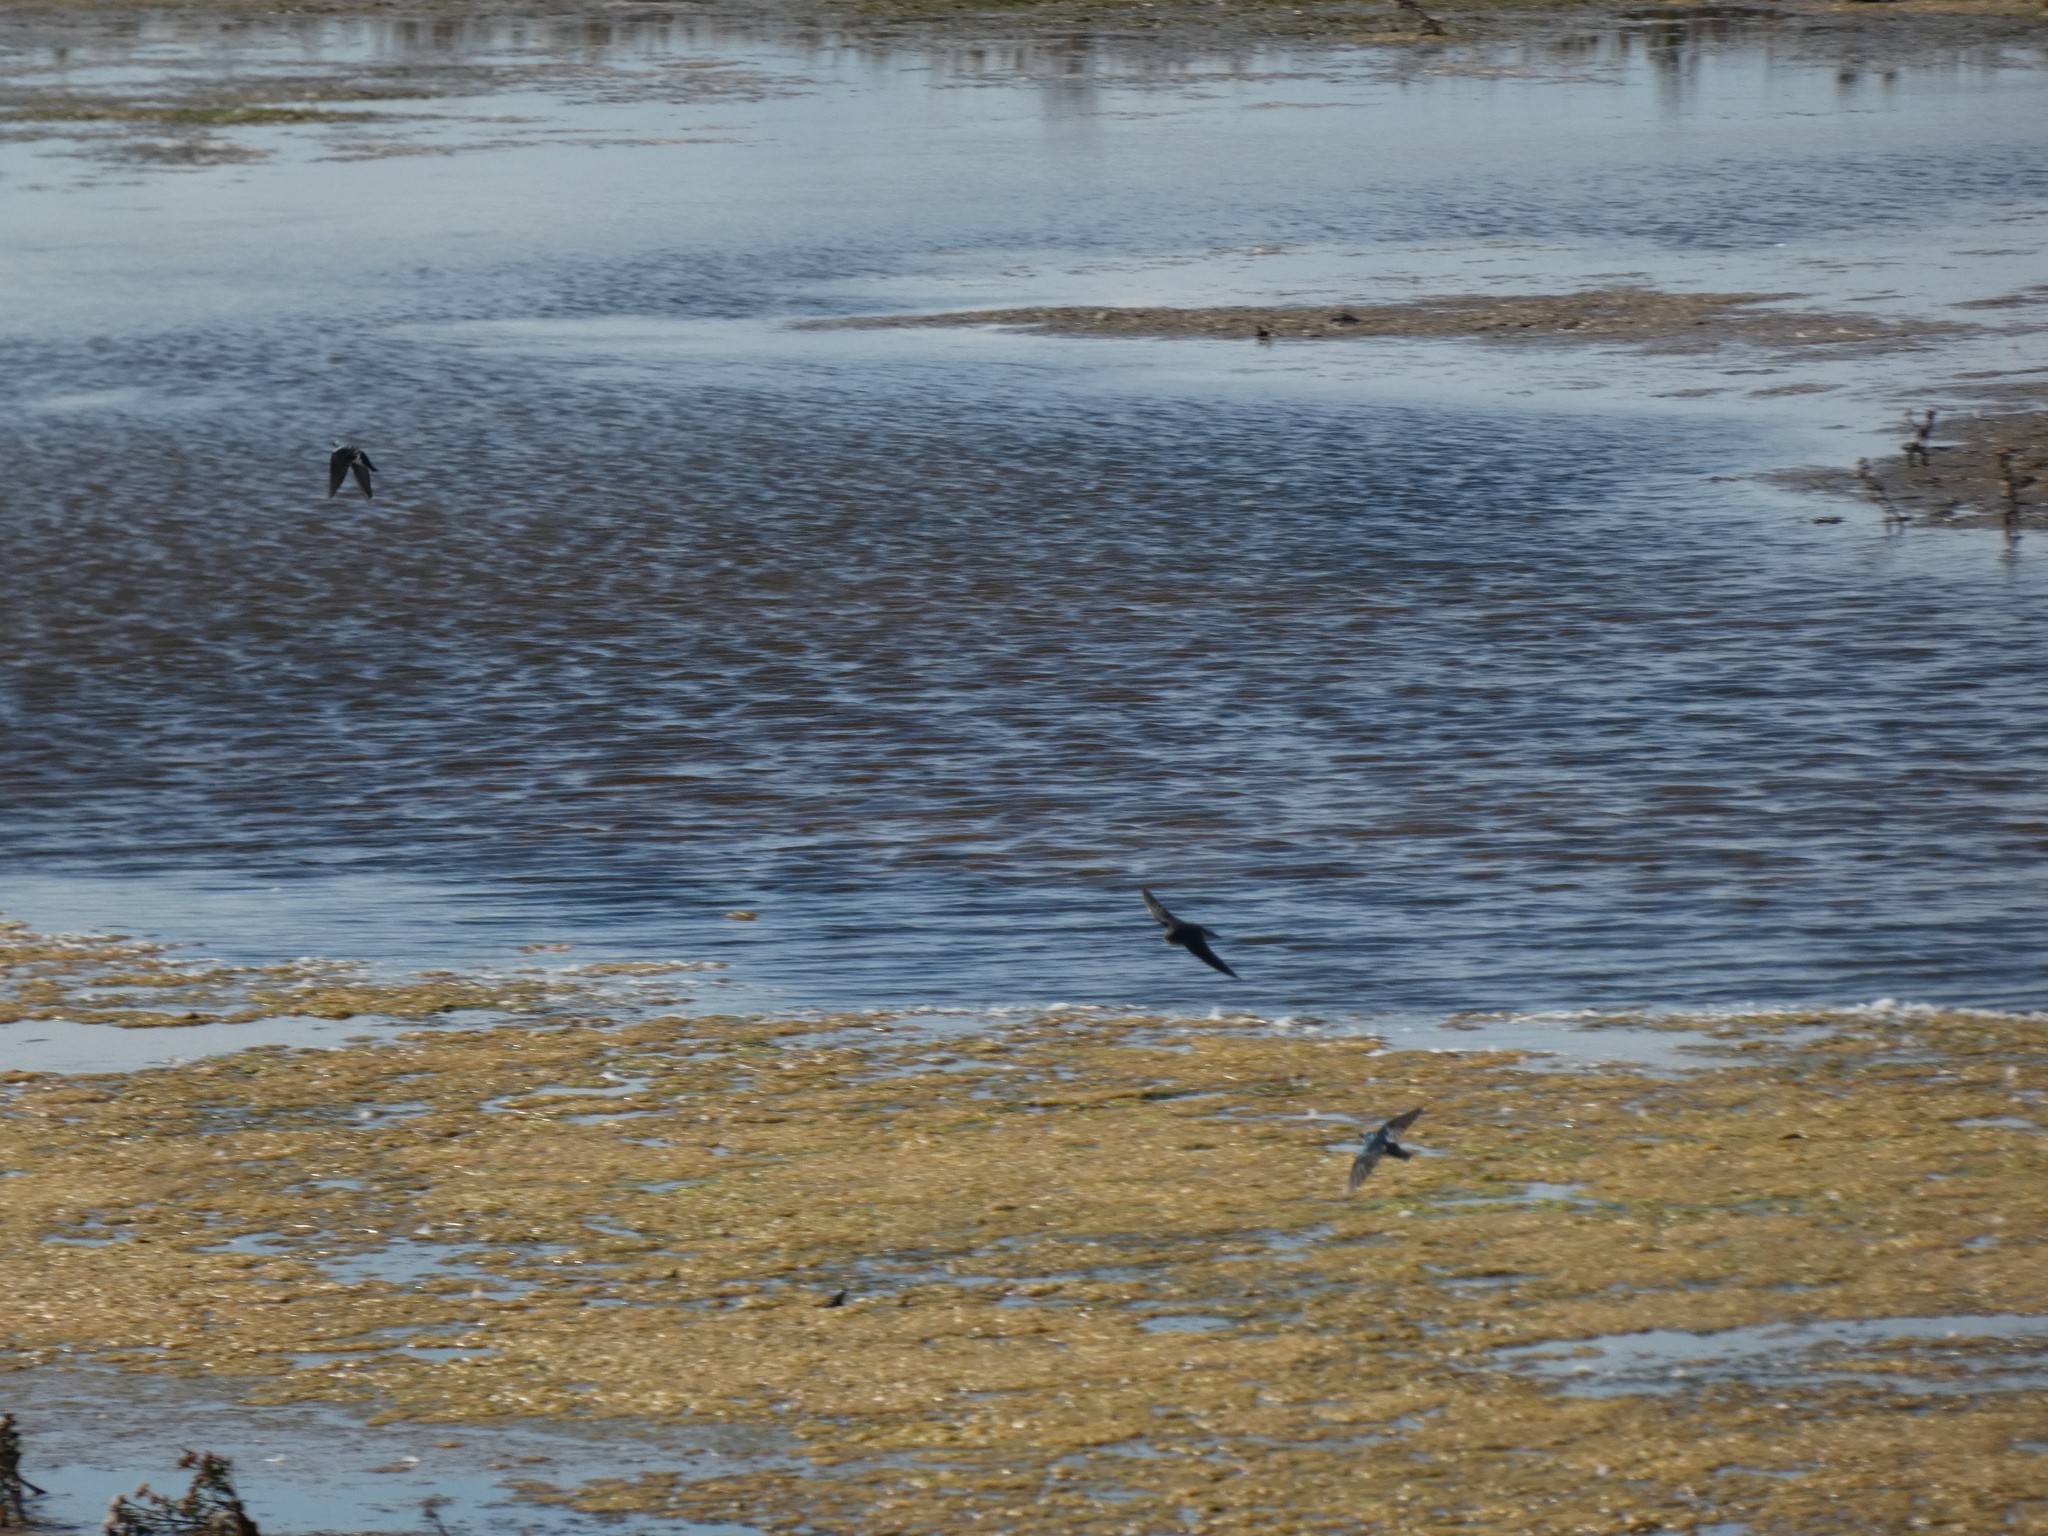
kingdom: Animalia
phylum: Chordata
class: Aves
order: Passeriformes
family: Hirundinidae
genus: Tachycineta
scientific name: Tachycineta bicolor
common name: Tree swallow
